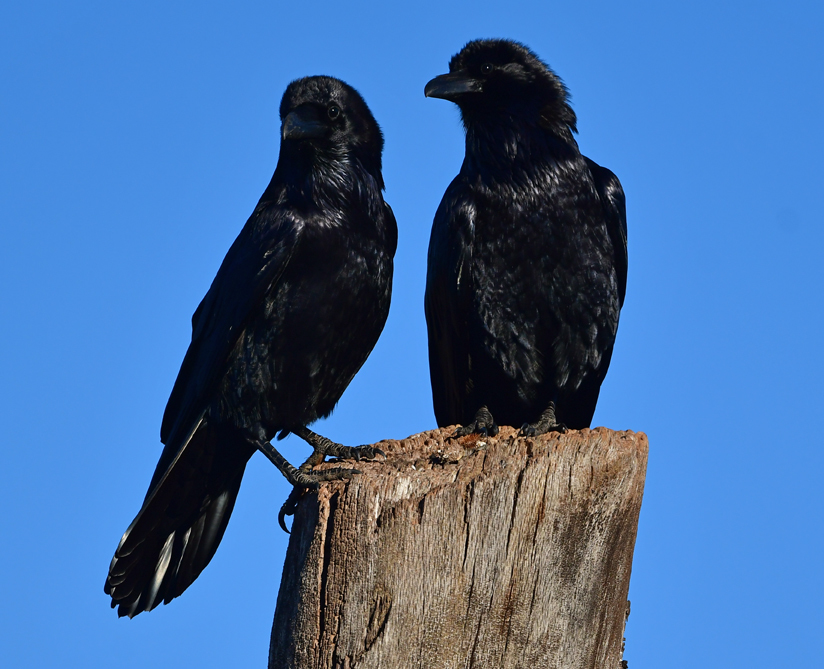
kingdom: Animalia
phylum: Chordata
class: Aves
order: Passeriformes
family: Corvidae
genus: Corvus
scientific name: Corvus corax
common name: Common raven
